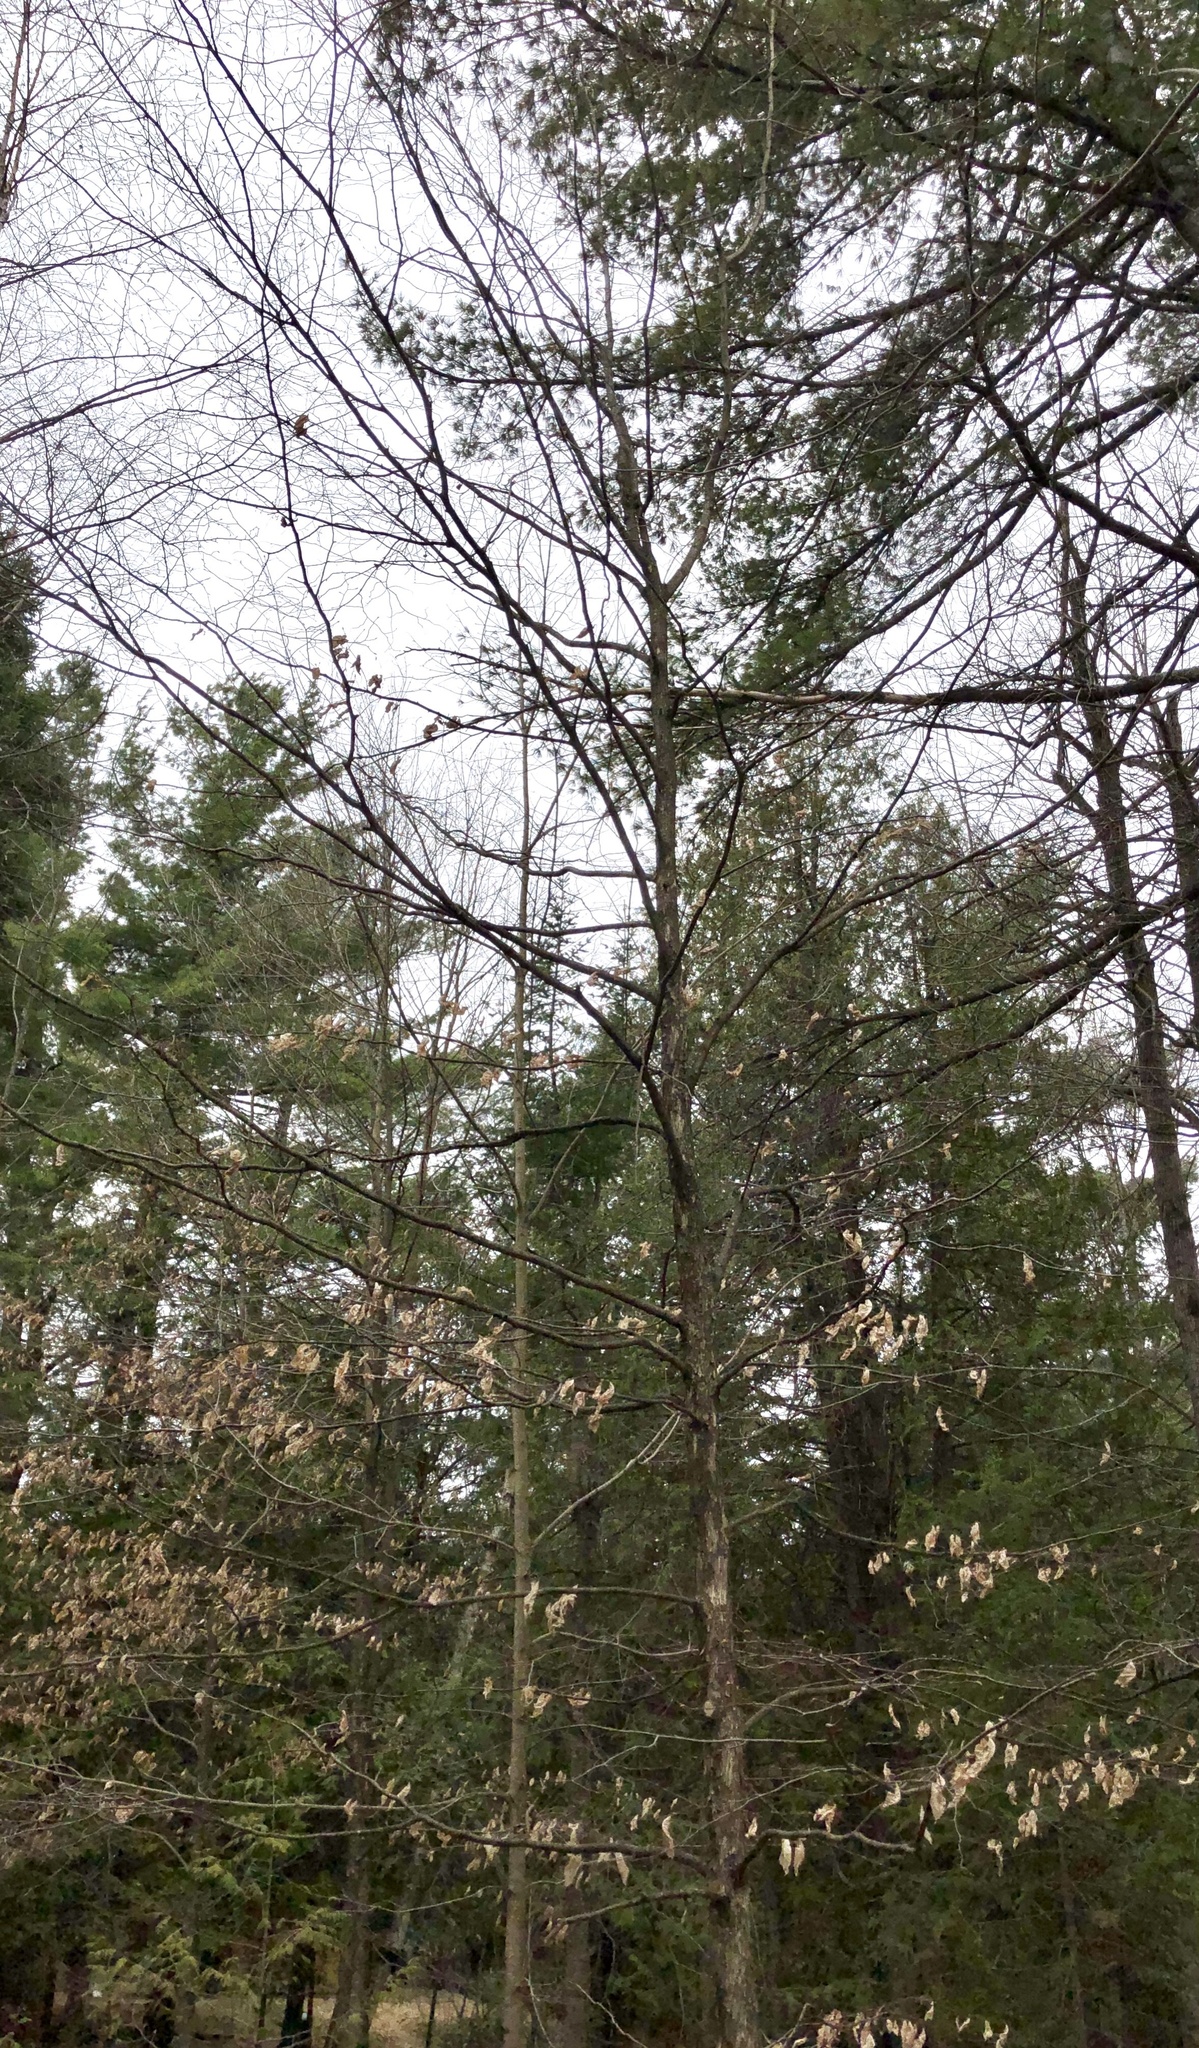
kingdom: Plantae
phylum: Tracheophyta
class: Magnoliopsida
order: Fagales
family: Betulaceae
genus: Ostrya
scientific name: Ostrya virginiana
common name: Ironwood
